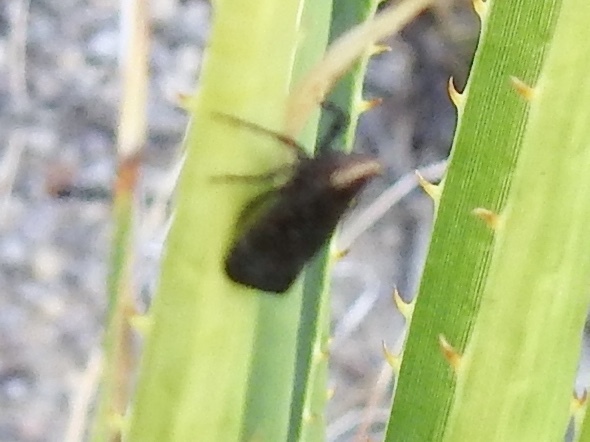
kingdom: Animalia
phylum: Arthropoda
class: Insecta
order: Hemiptera
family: Fulgoridae
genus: Crepusia
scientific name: Crepusia fuliginosa
